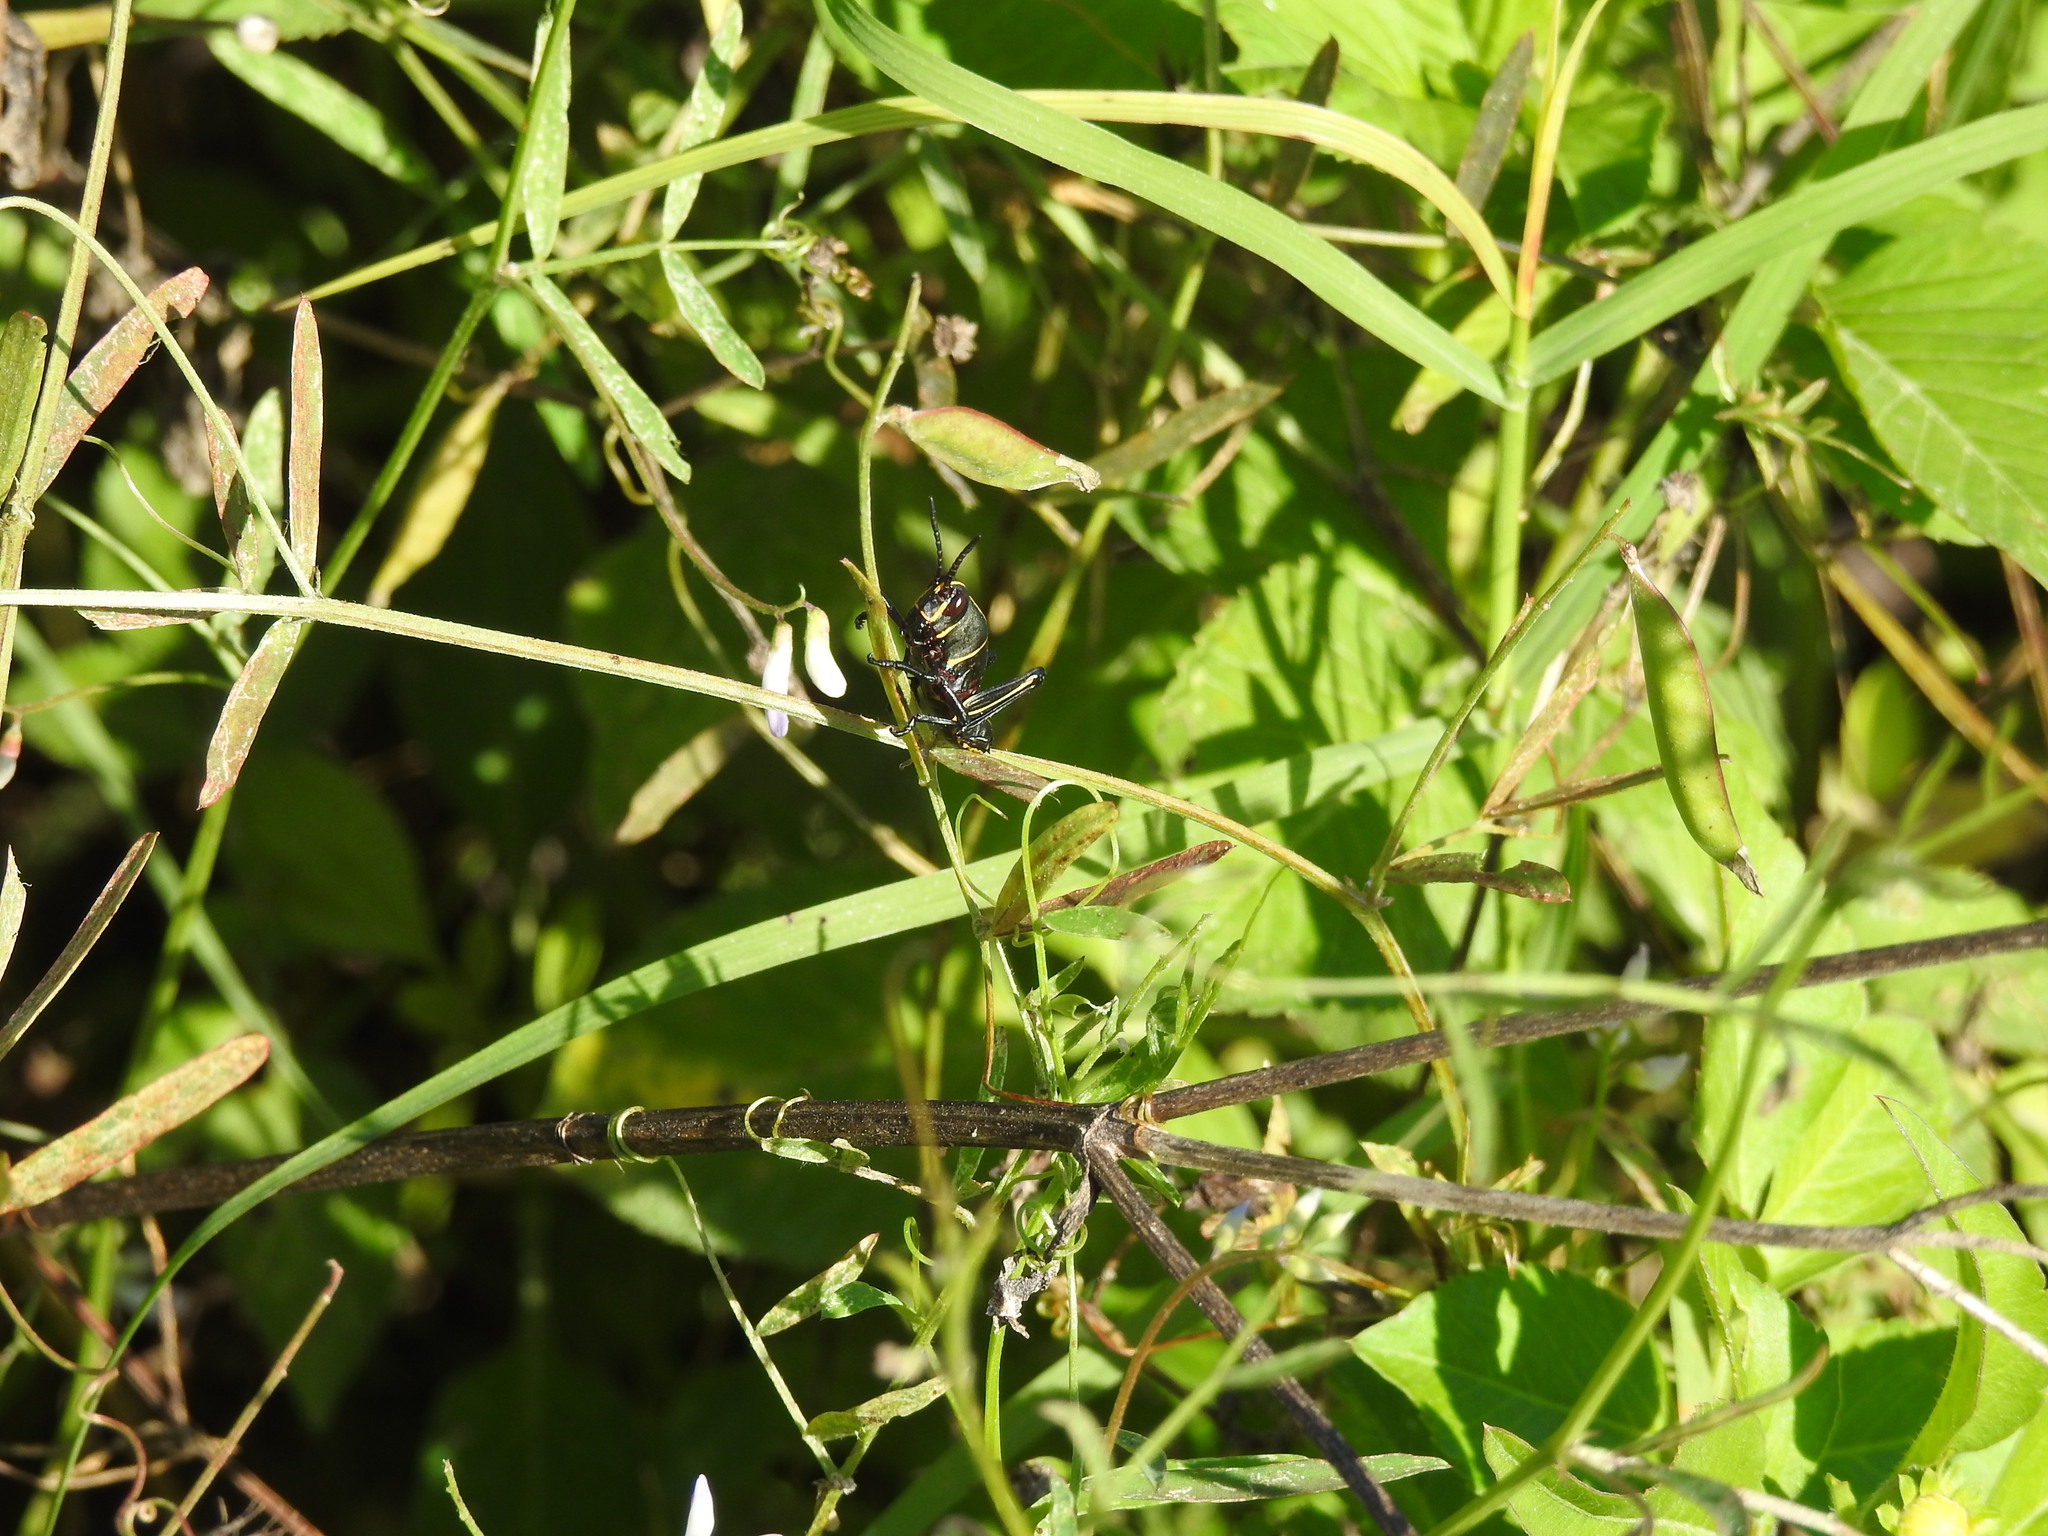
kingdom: Animalia
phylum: Arthropoda
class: Insecta
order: Orthoptera
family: Romaleidae
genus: Romalea
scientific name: Romalea microptera
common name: Eastern lubber grasshopper
